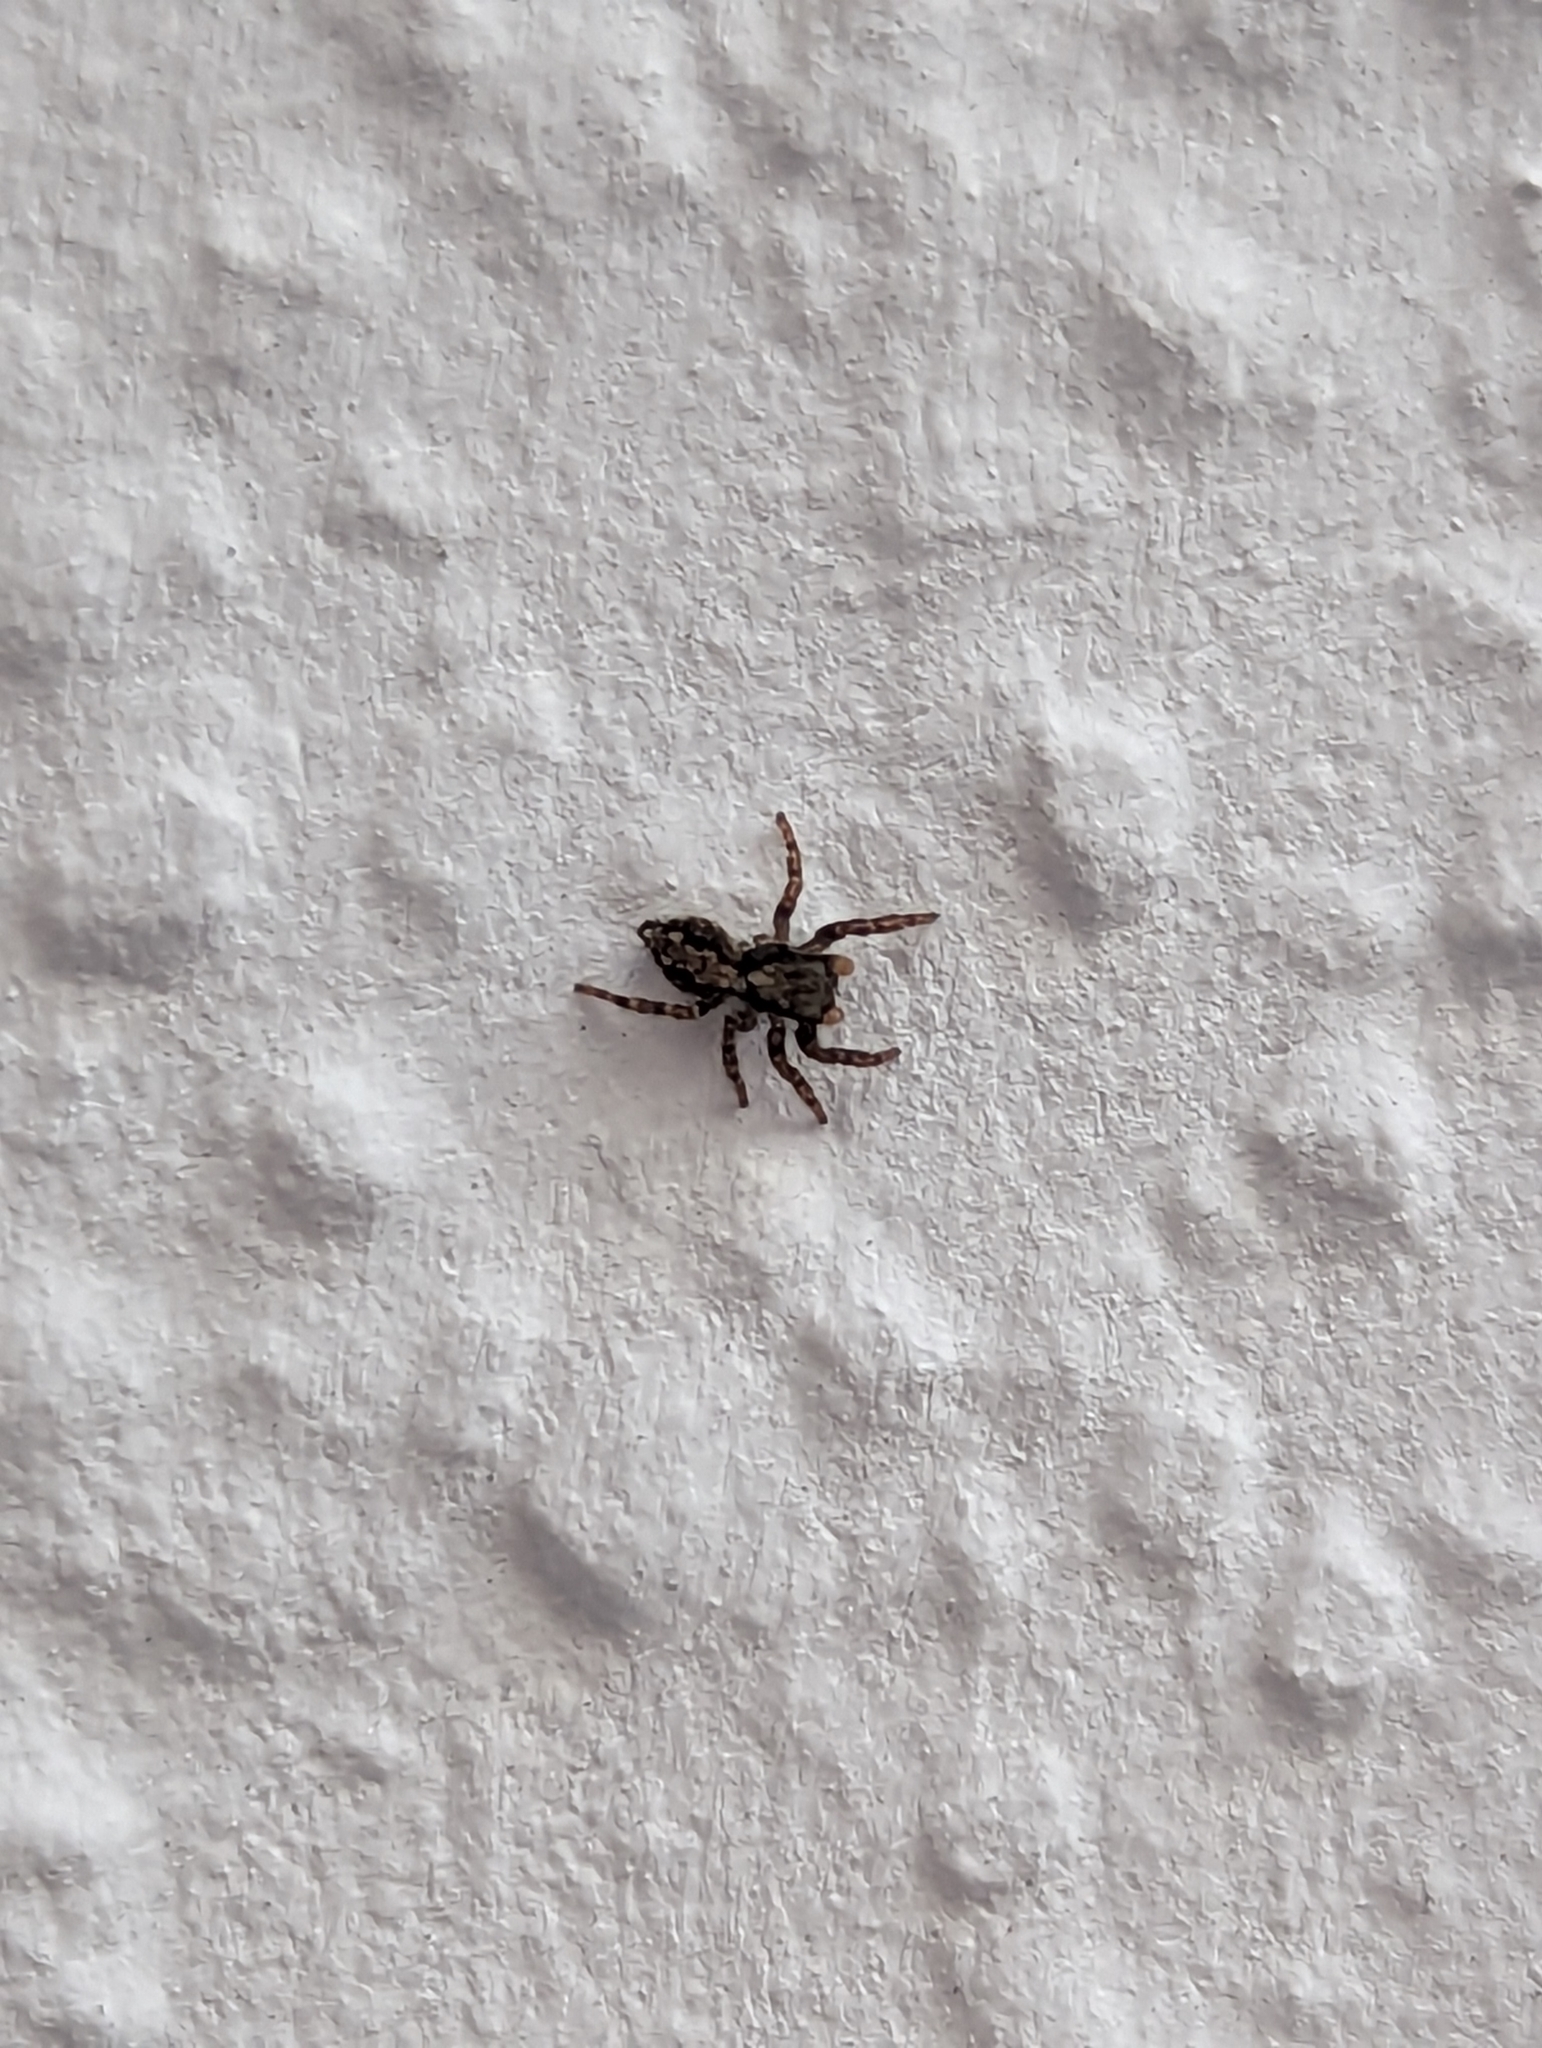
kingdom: Animalia
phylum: Arthropoda
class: Arachnida
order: Araneae
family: Salticidae
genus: Pseudeuophrys
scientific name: Pseudeuophrys lanigera
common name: Jumping spider
